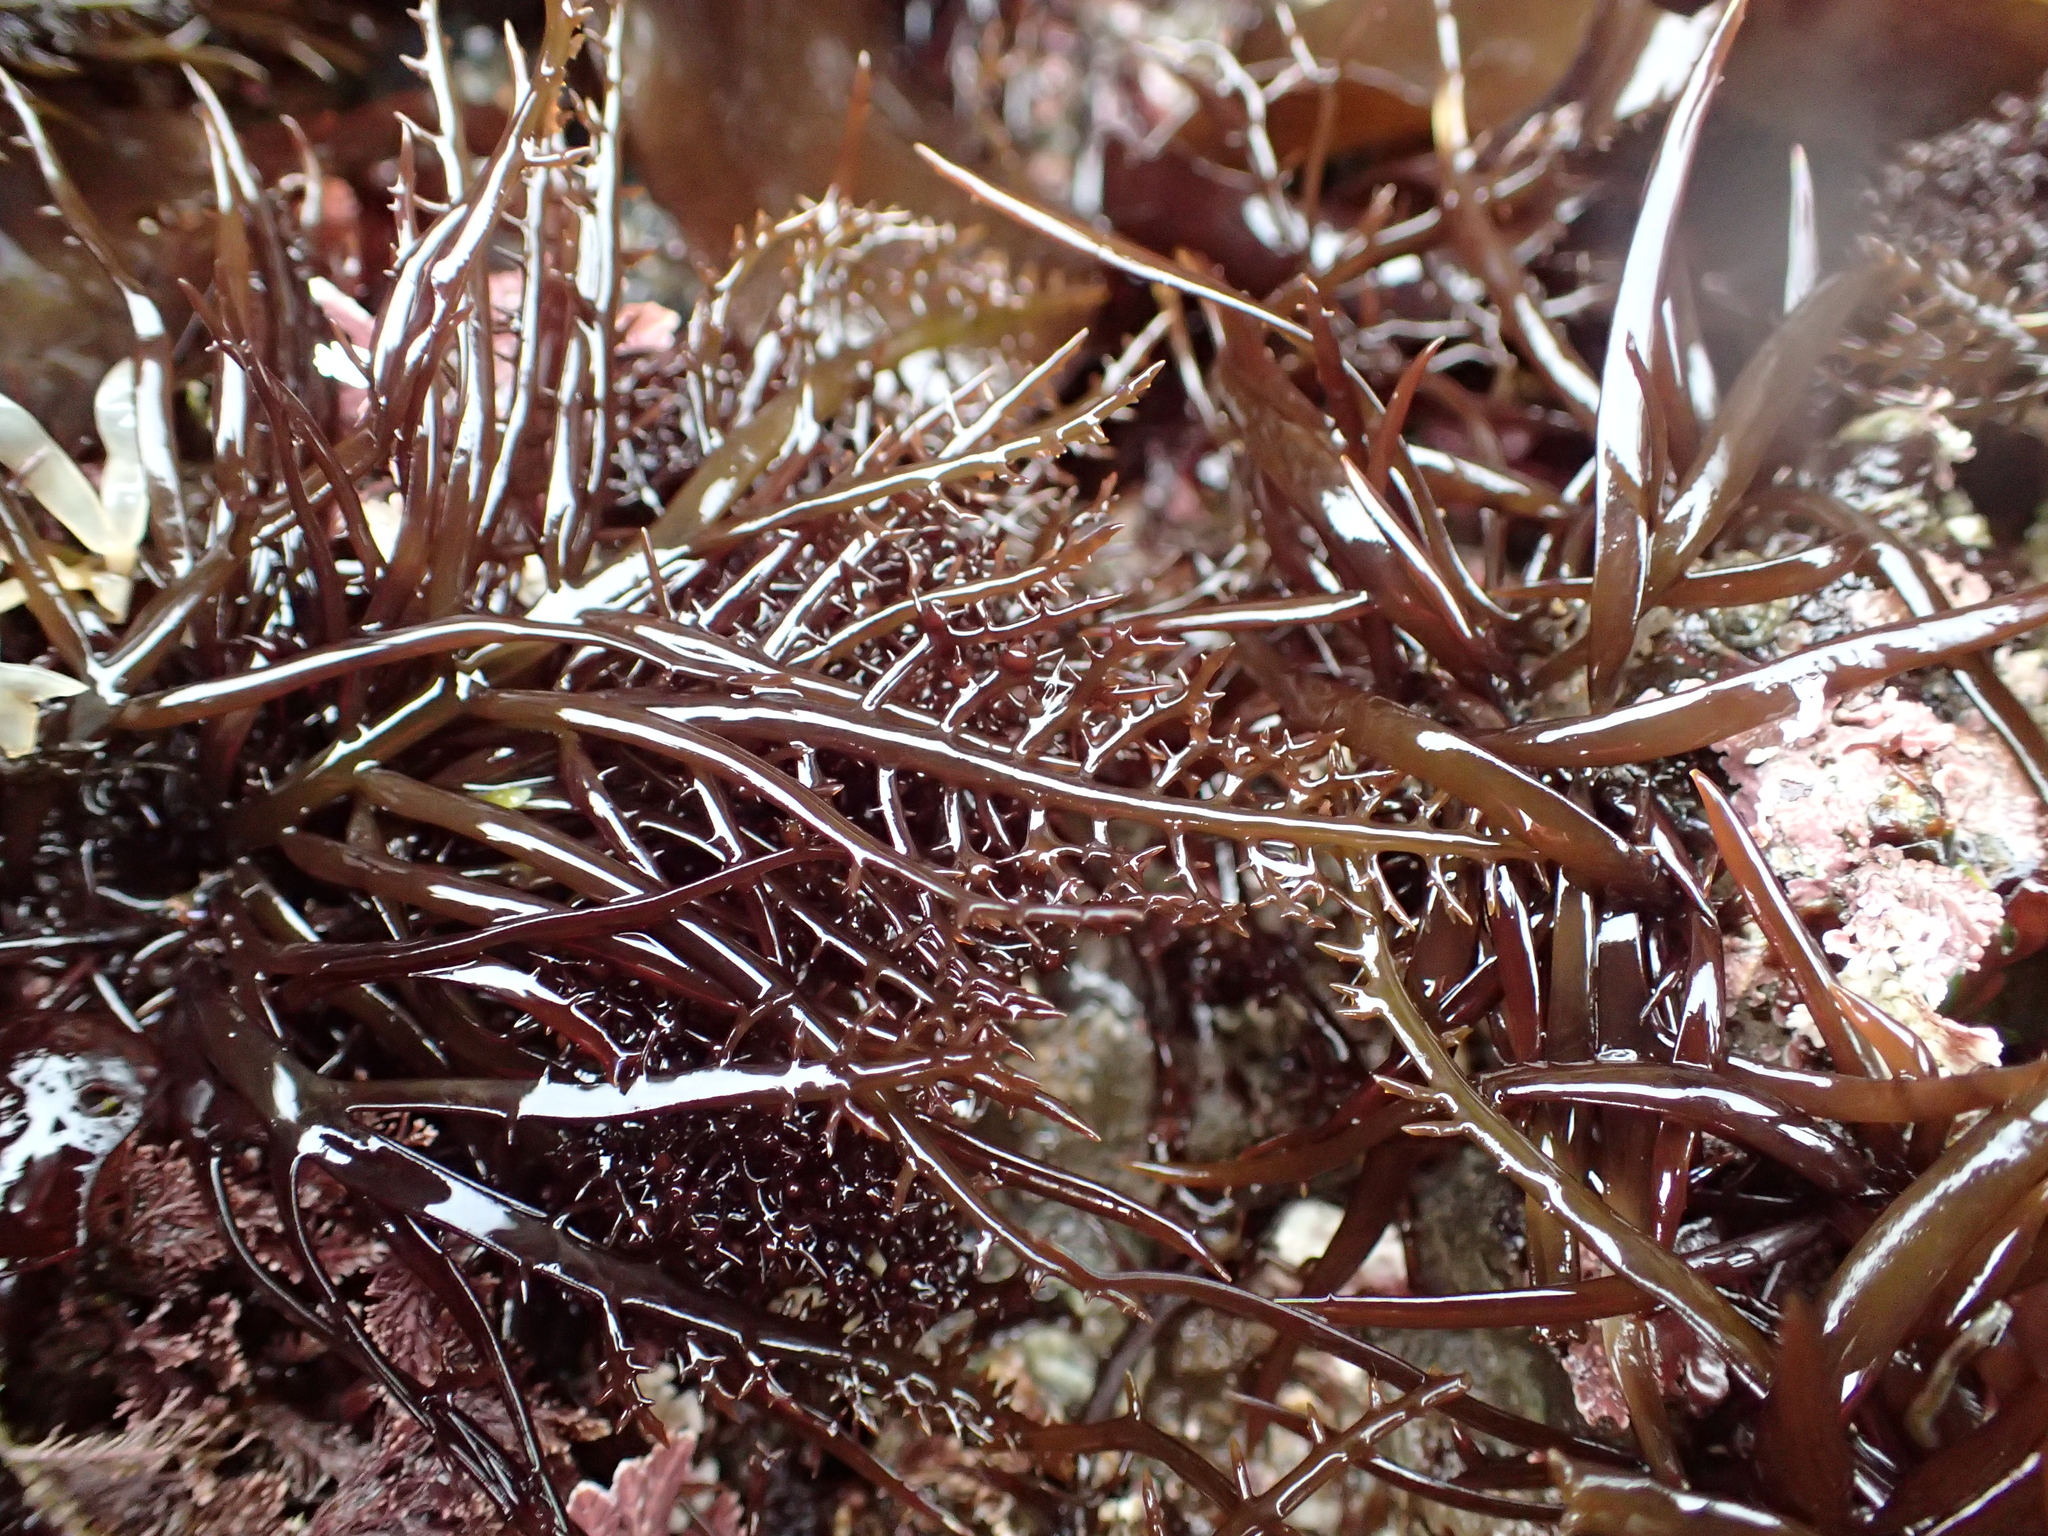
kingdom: Plantae
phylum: Rhodophyta
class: Florideophyceae
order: Gigartinales
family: Gigartinaceae
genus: Chondracanthus
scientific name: Chondracanthus canaliculatus
